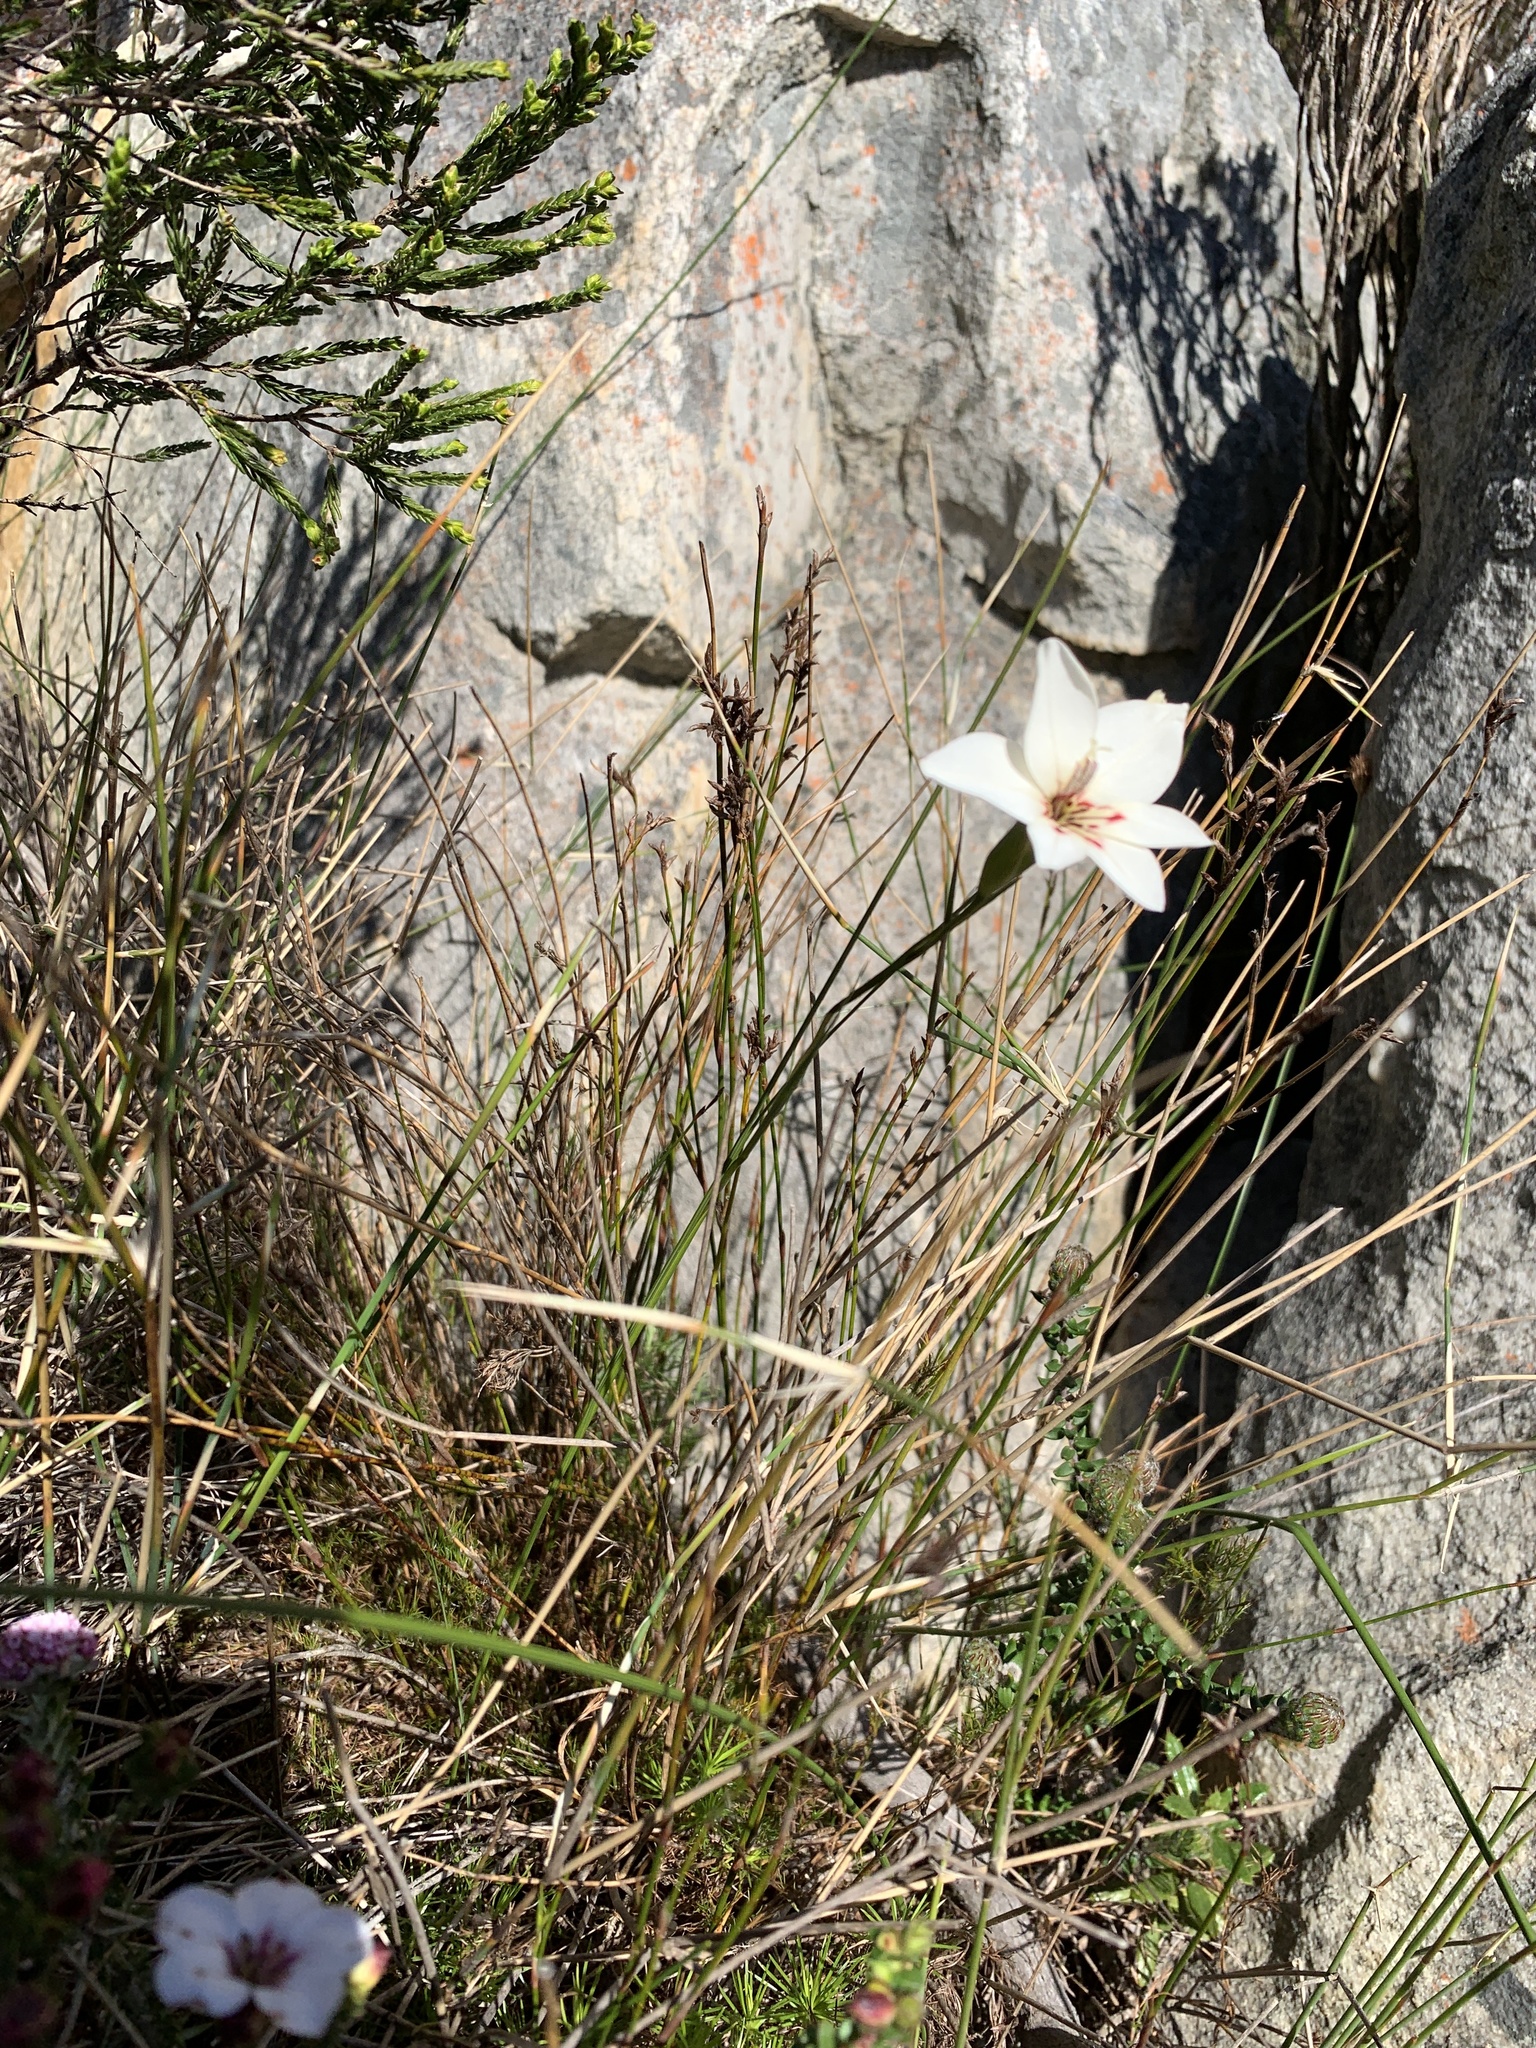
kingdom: Plantae
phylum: Tracheophyta
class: Liliopsida
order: Asparagales
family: Iridaceae
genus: Gladiolus
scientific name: Gladiolus debilis
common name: Painted-lady
